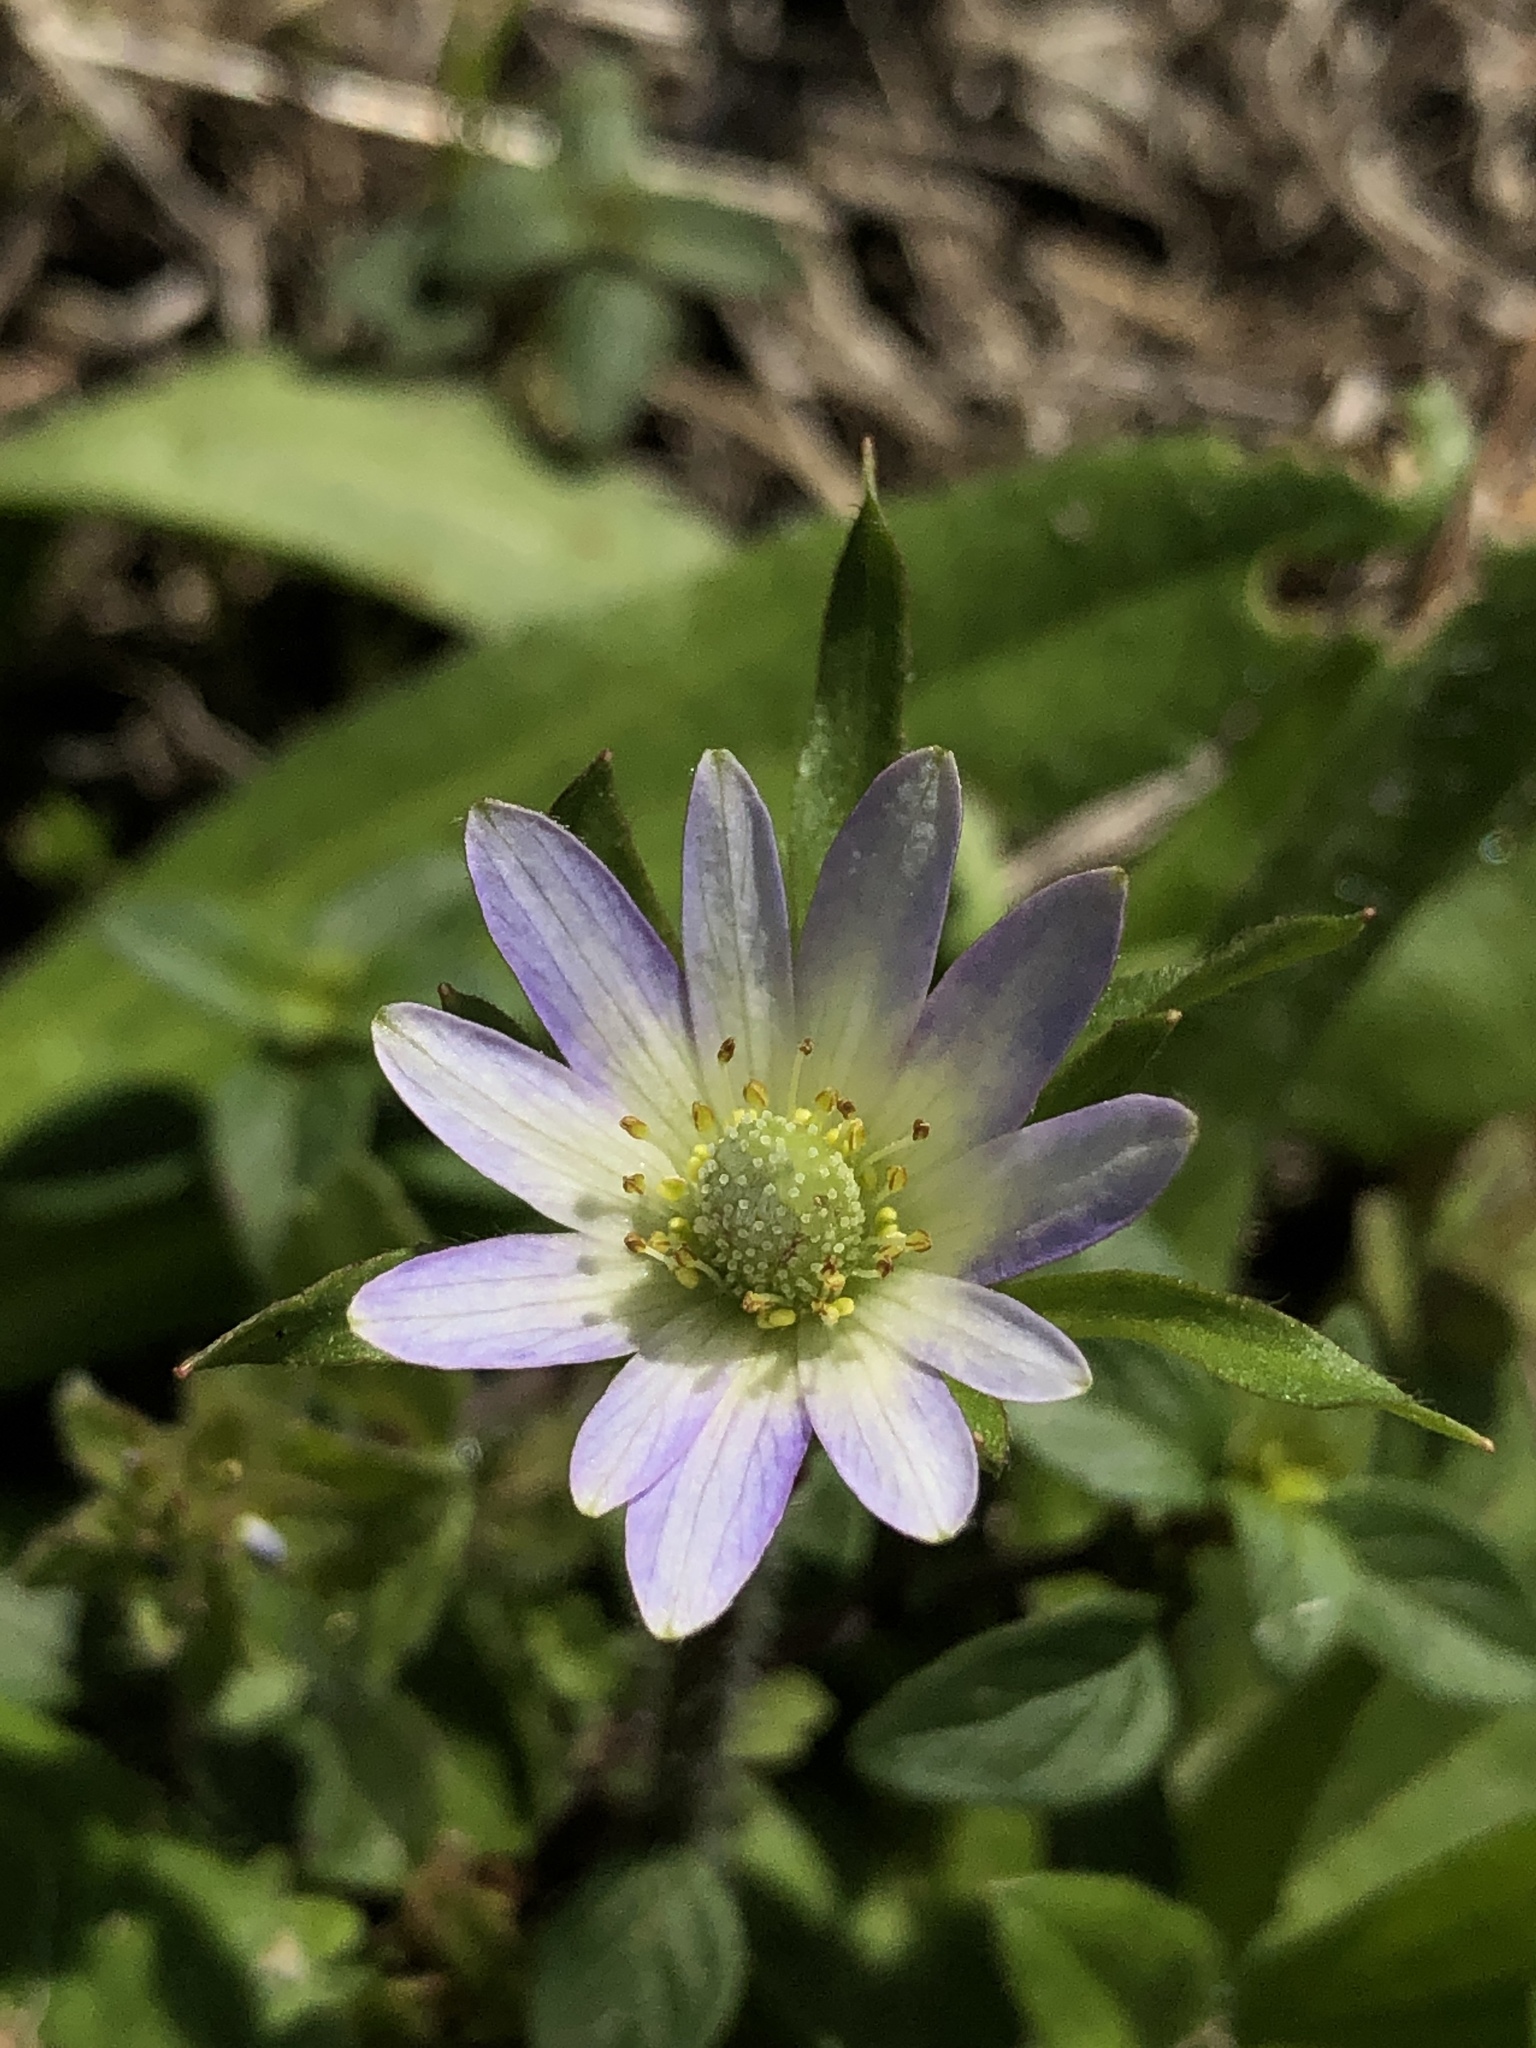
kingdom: Plantae
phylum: Tracheophyta
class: Magnoliopsida
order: Ranunculales
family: Ranunculaceae
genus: Anemone
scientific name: Anemone berlandieri
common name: Ten-petal anemone
